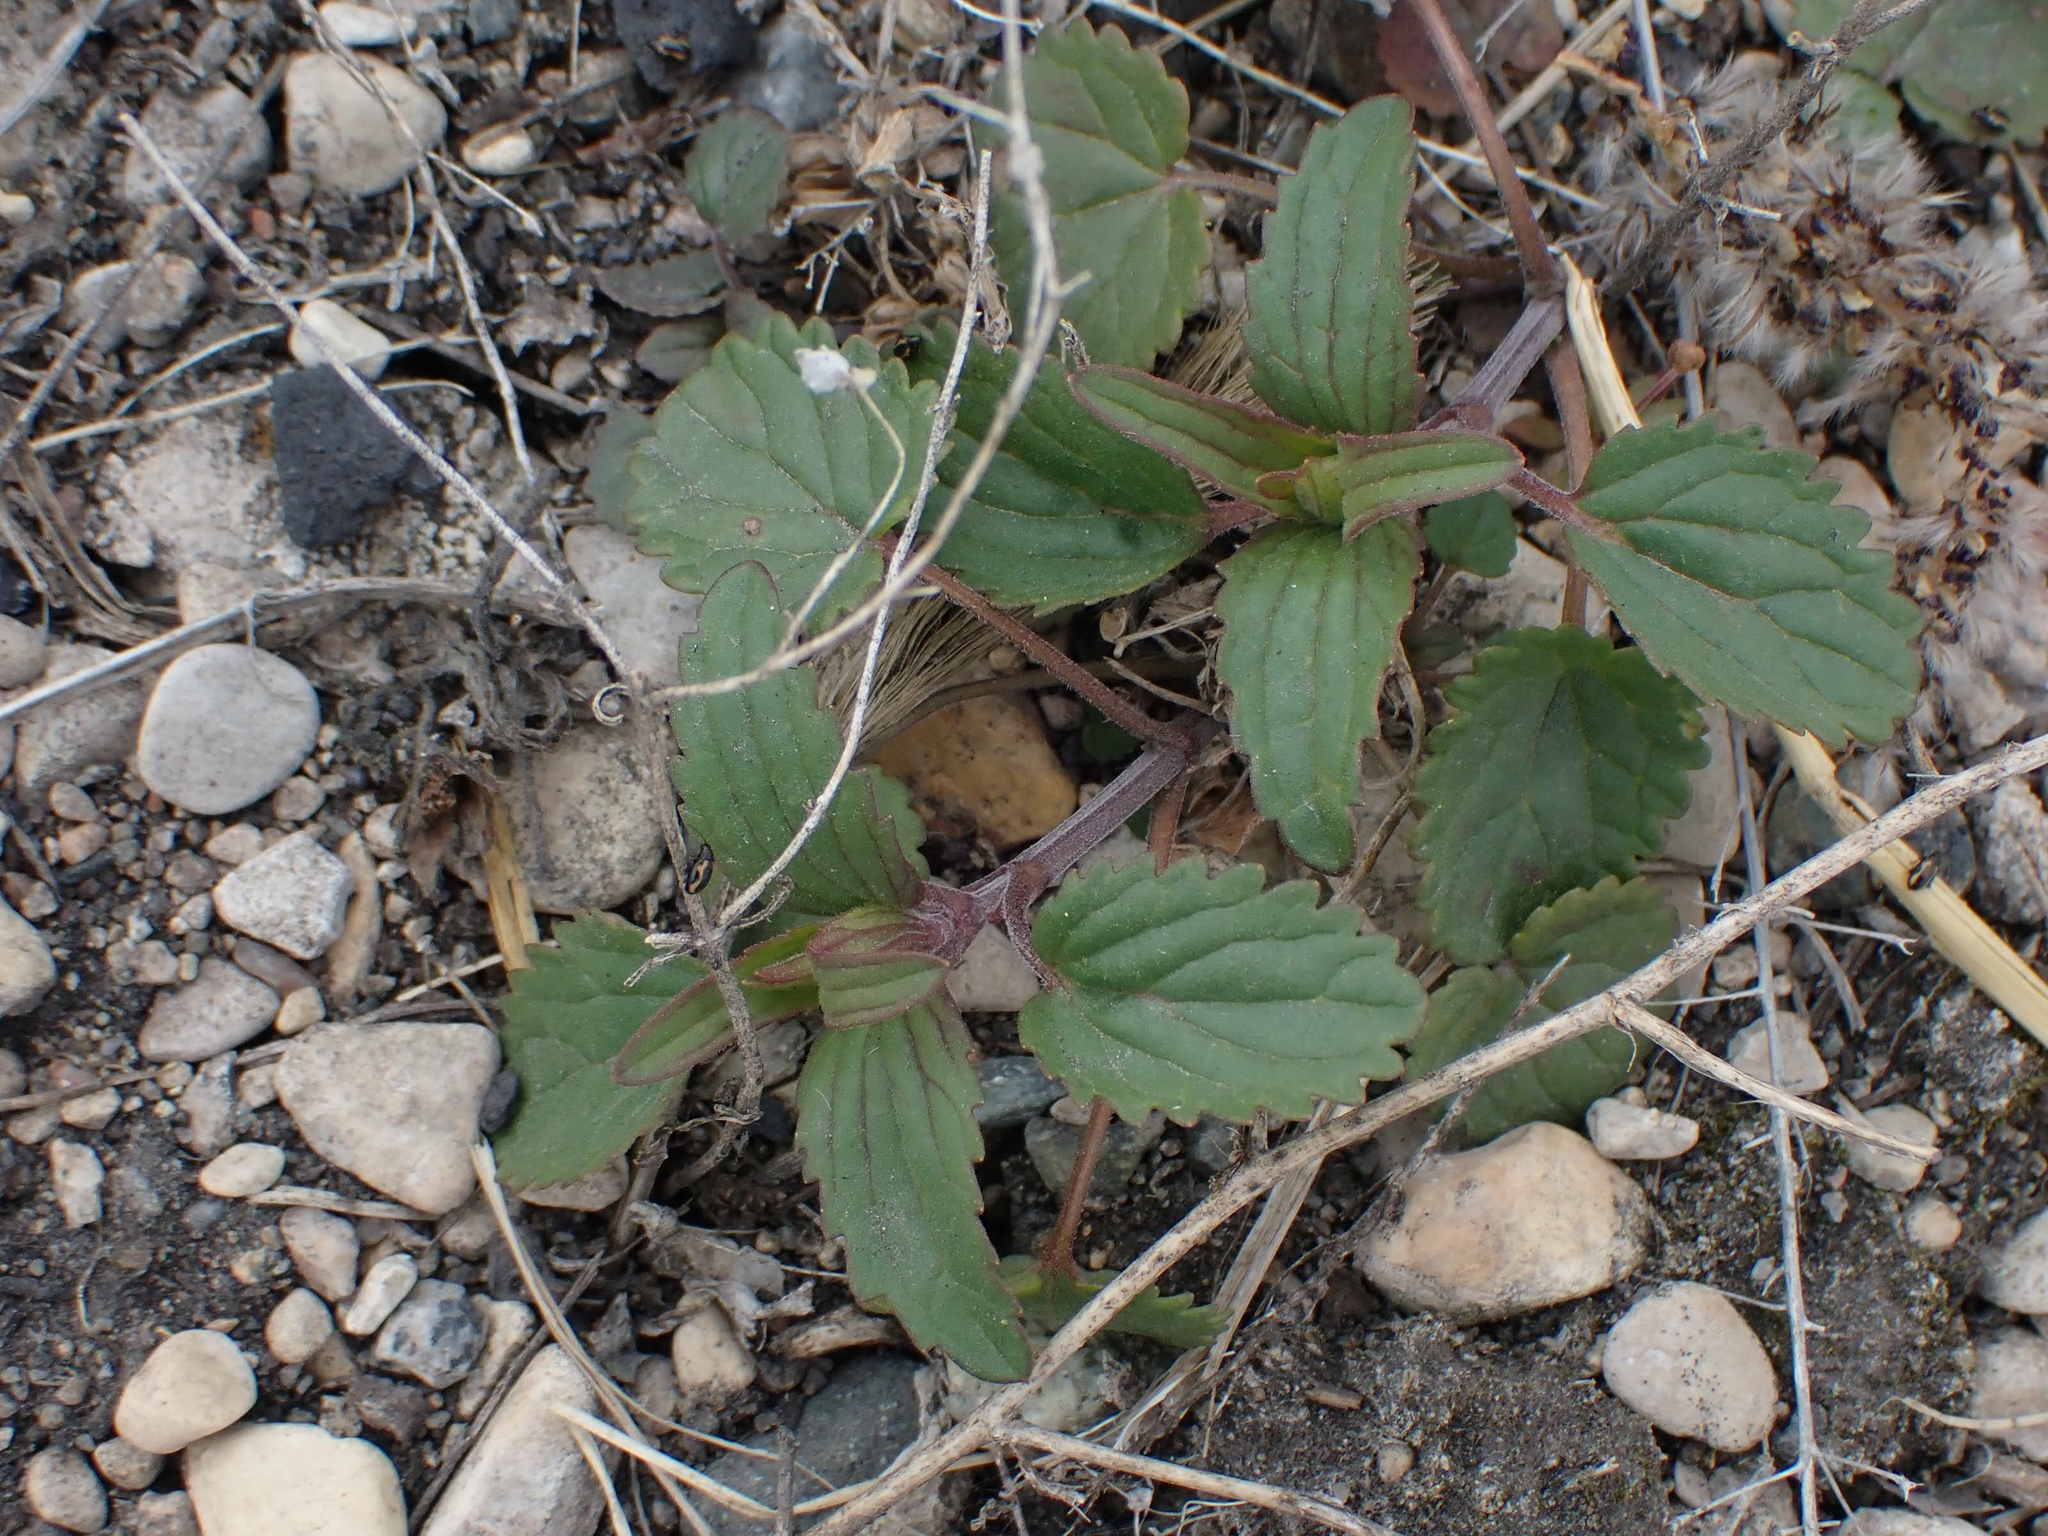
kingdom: Plantae
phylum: Tracheophyta
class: Magnoliopsida
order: Rosales
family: Urticaceae
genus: Urtica
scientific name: Urtica gracilis
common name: Slender stinging nettle
